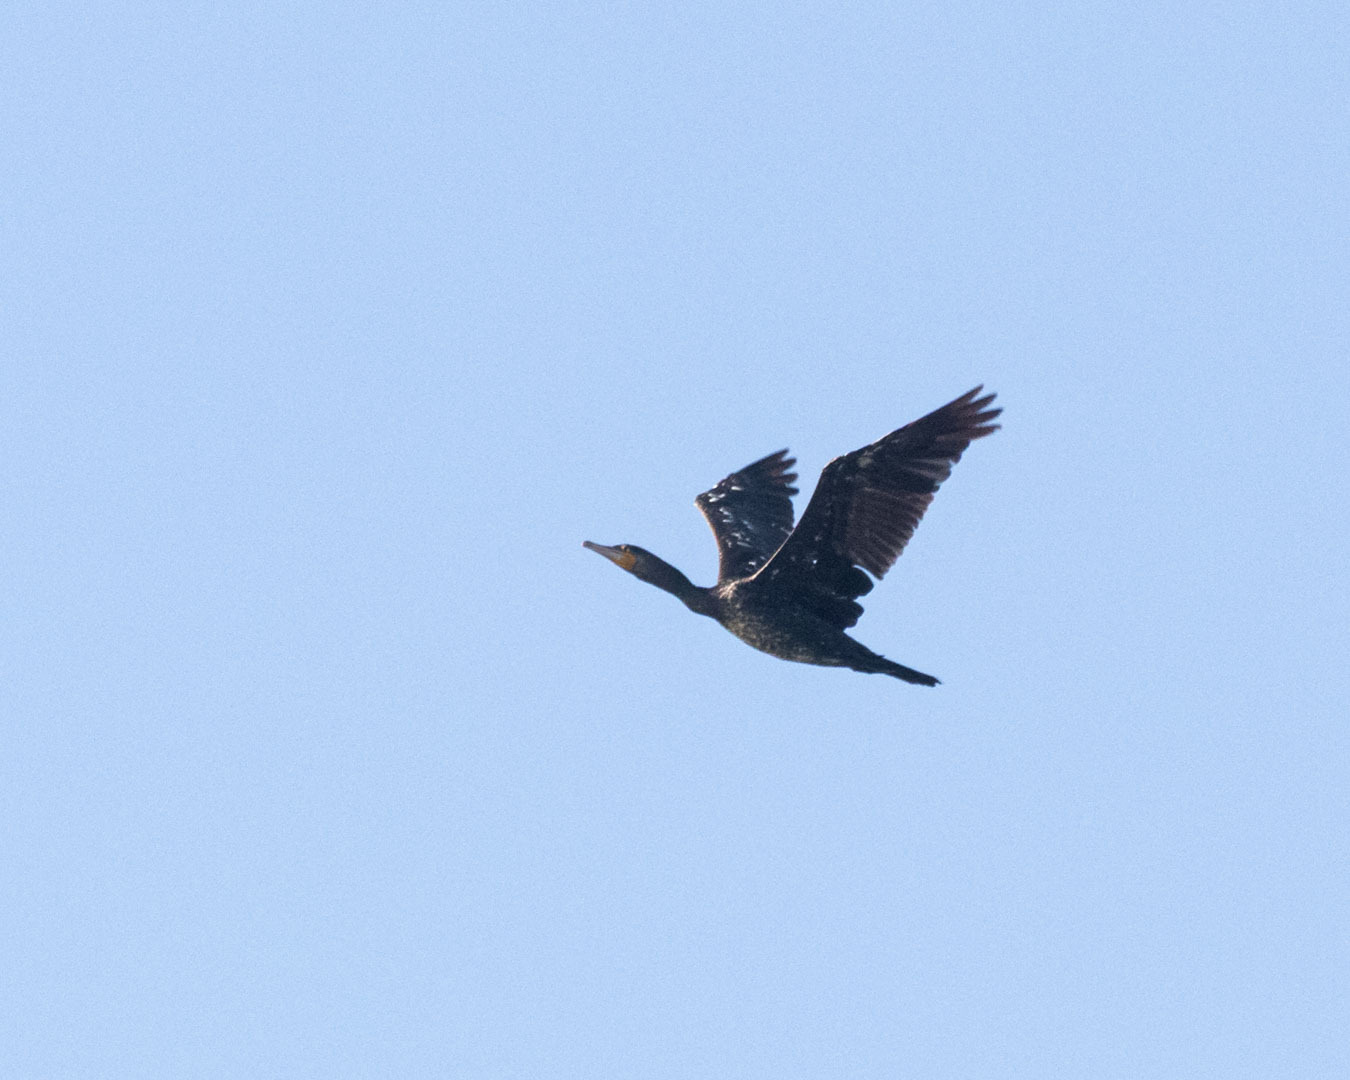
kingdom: Animalia
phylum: Chordata
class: Aves
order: Suliformes
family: Phalacrocoracidae
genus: Phalacrocorax
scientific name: Phalacrocorax carbo
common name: Great cormorant
